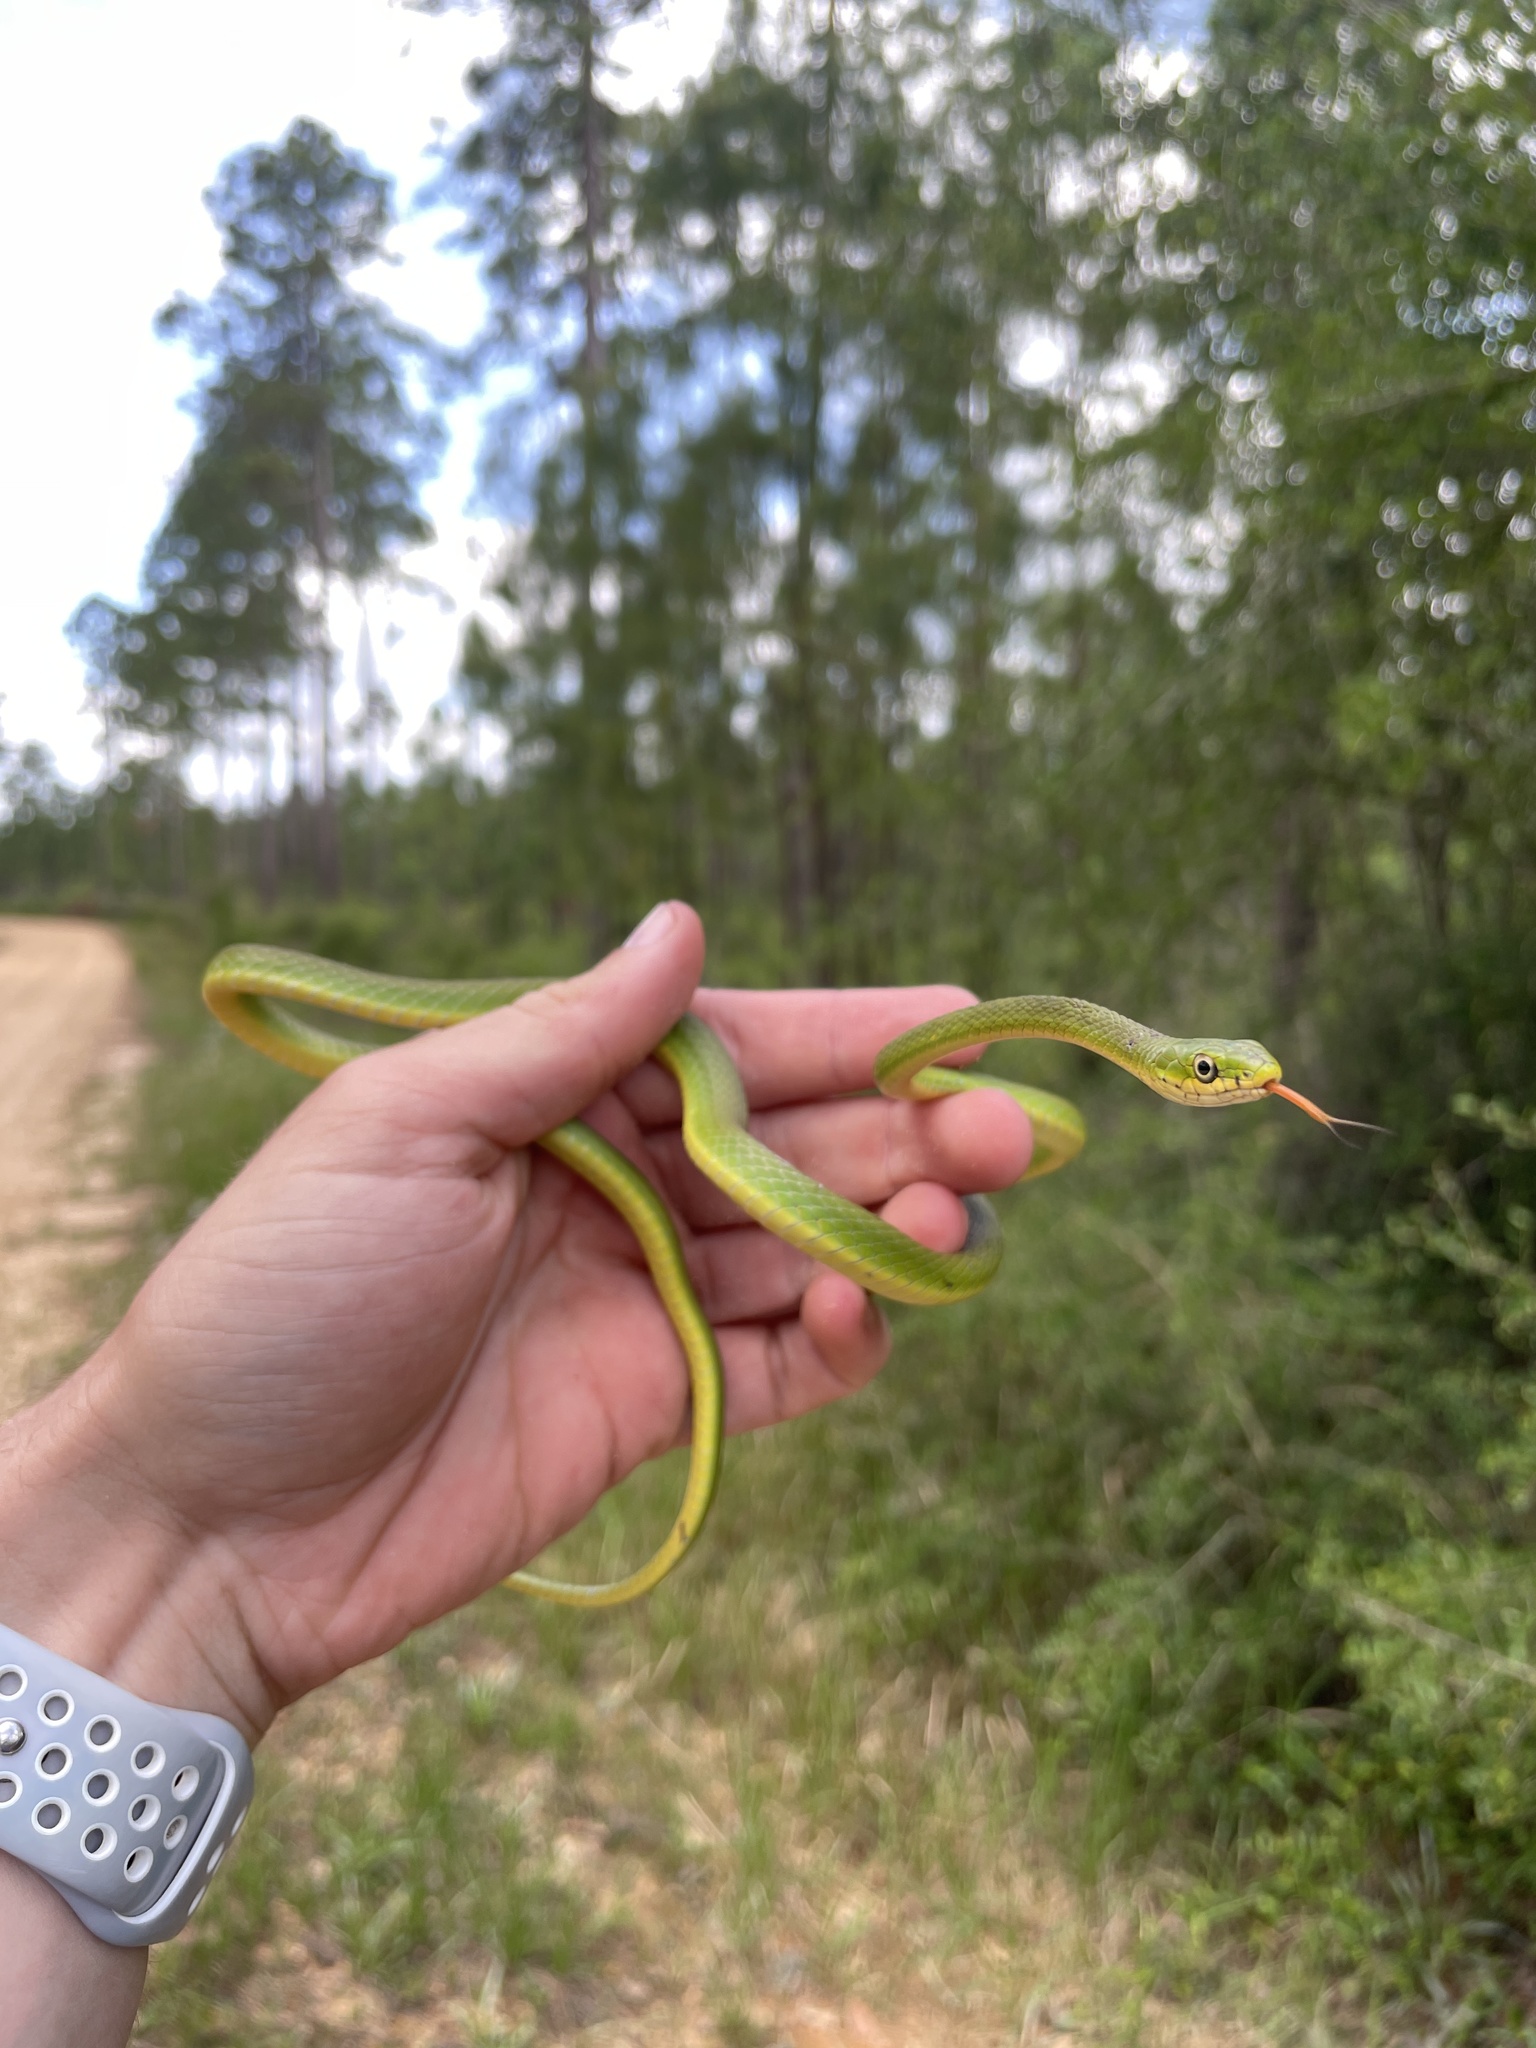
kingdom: Animalia
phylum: Chordata
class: Squamata
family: Colubridae
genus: Opheodrys
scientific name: Opheodrys aestivus
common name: Rough greensnake
